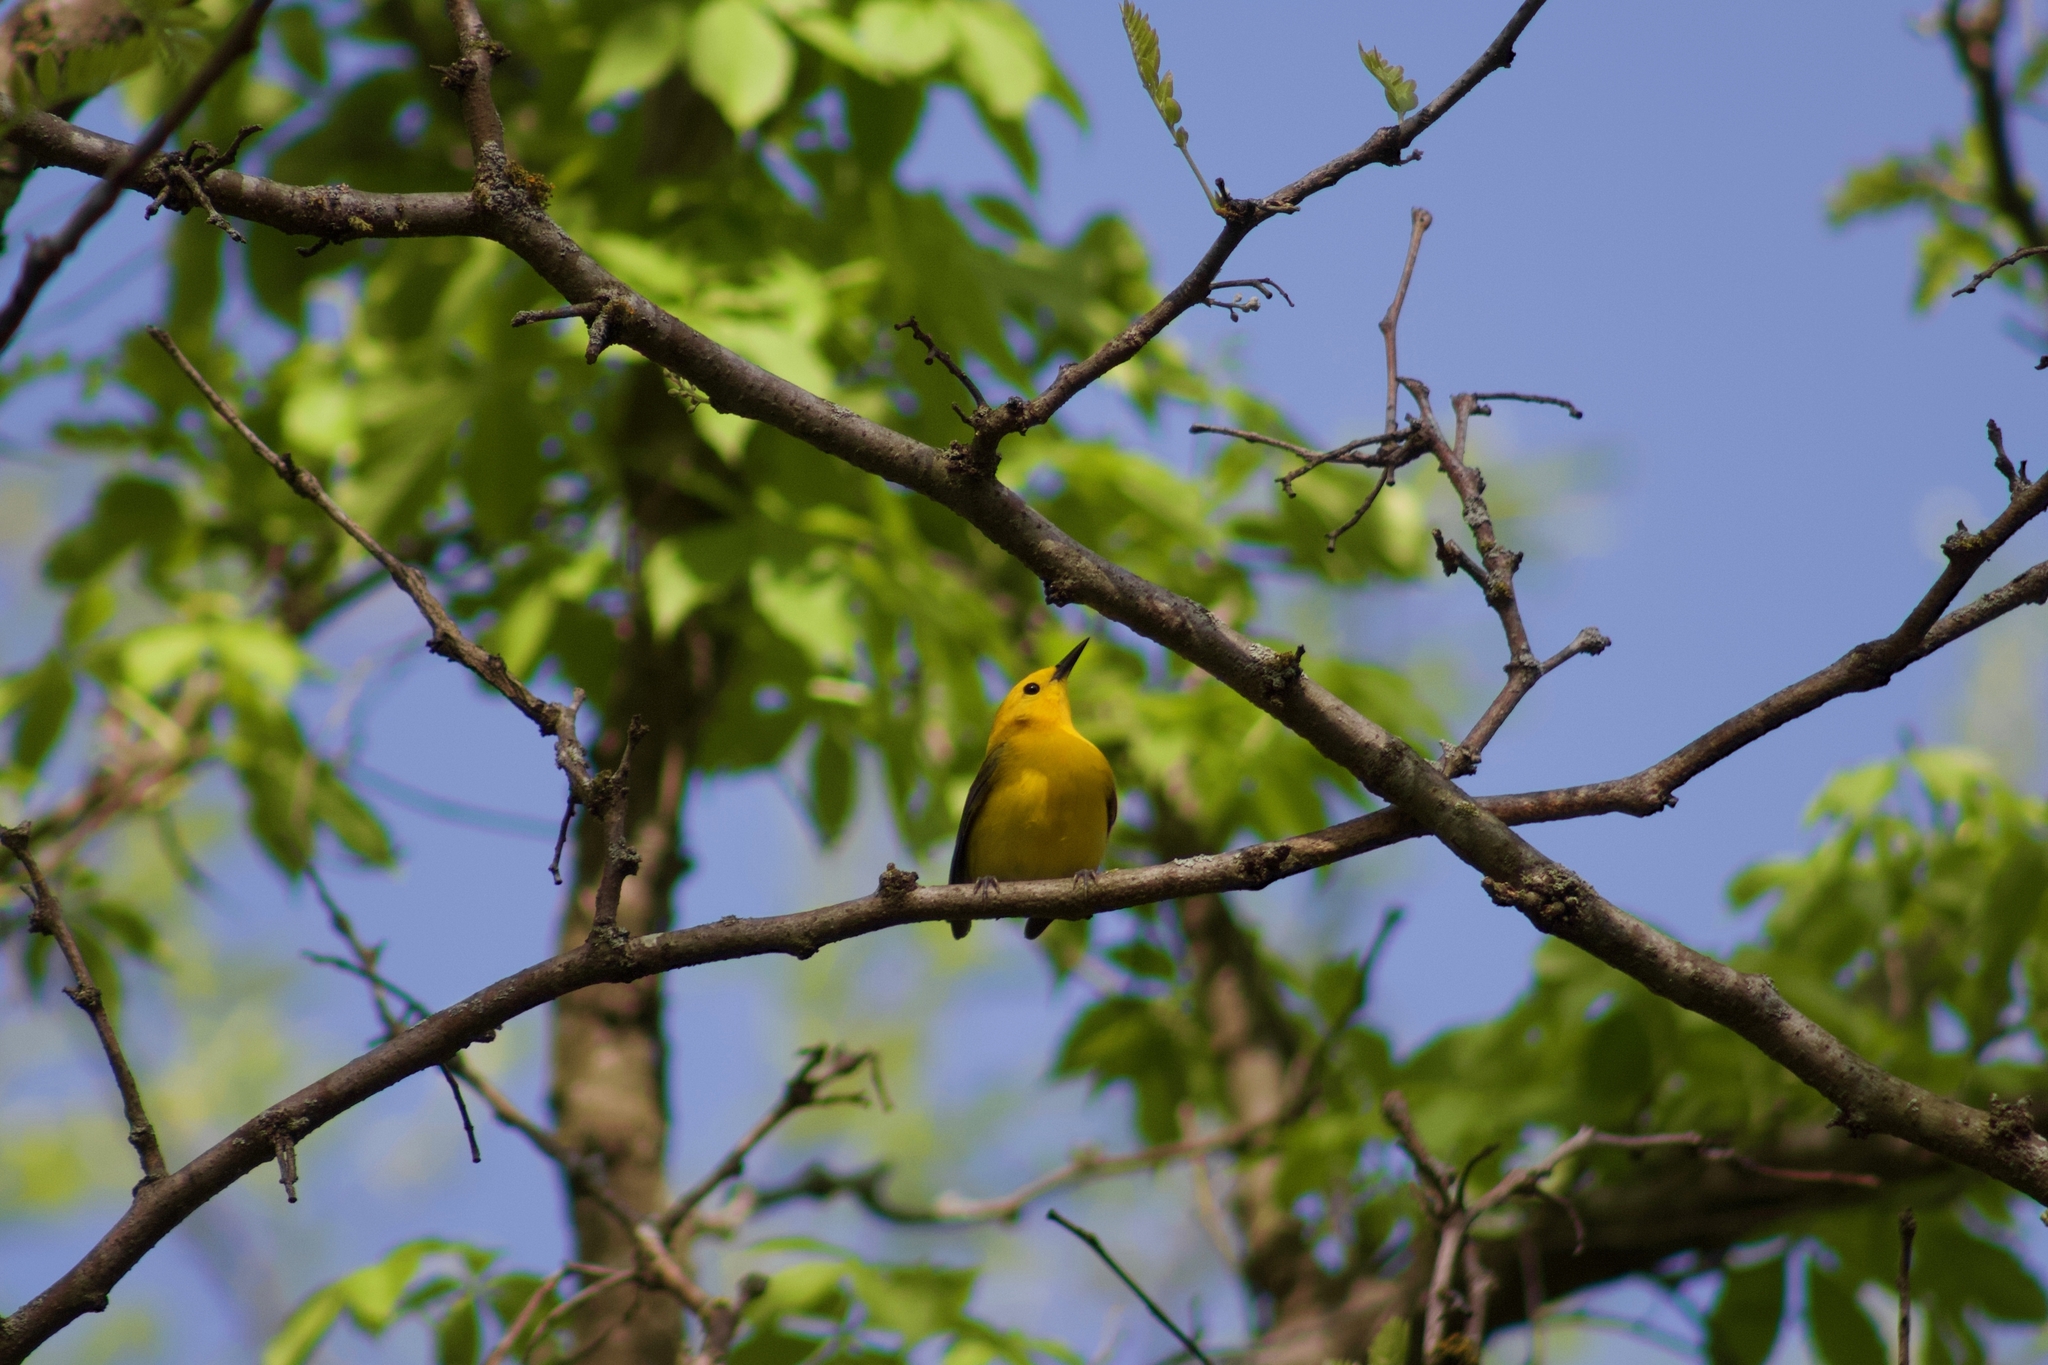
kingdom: Animalia
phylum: Chordata
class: Aves
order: Passeriformes
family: Parulidae
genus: Protonotaria
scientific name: Protonotaria citrea
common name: Prothonotary warbler
